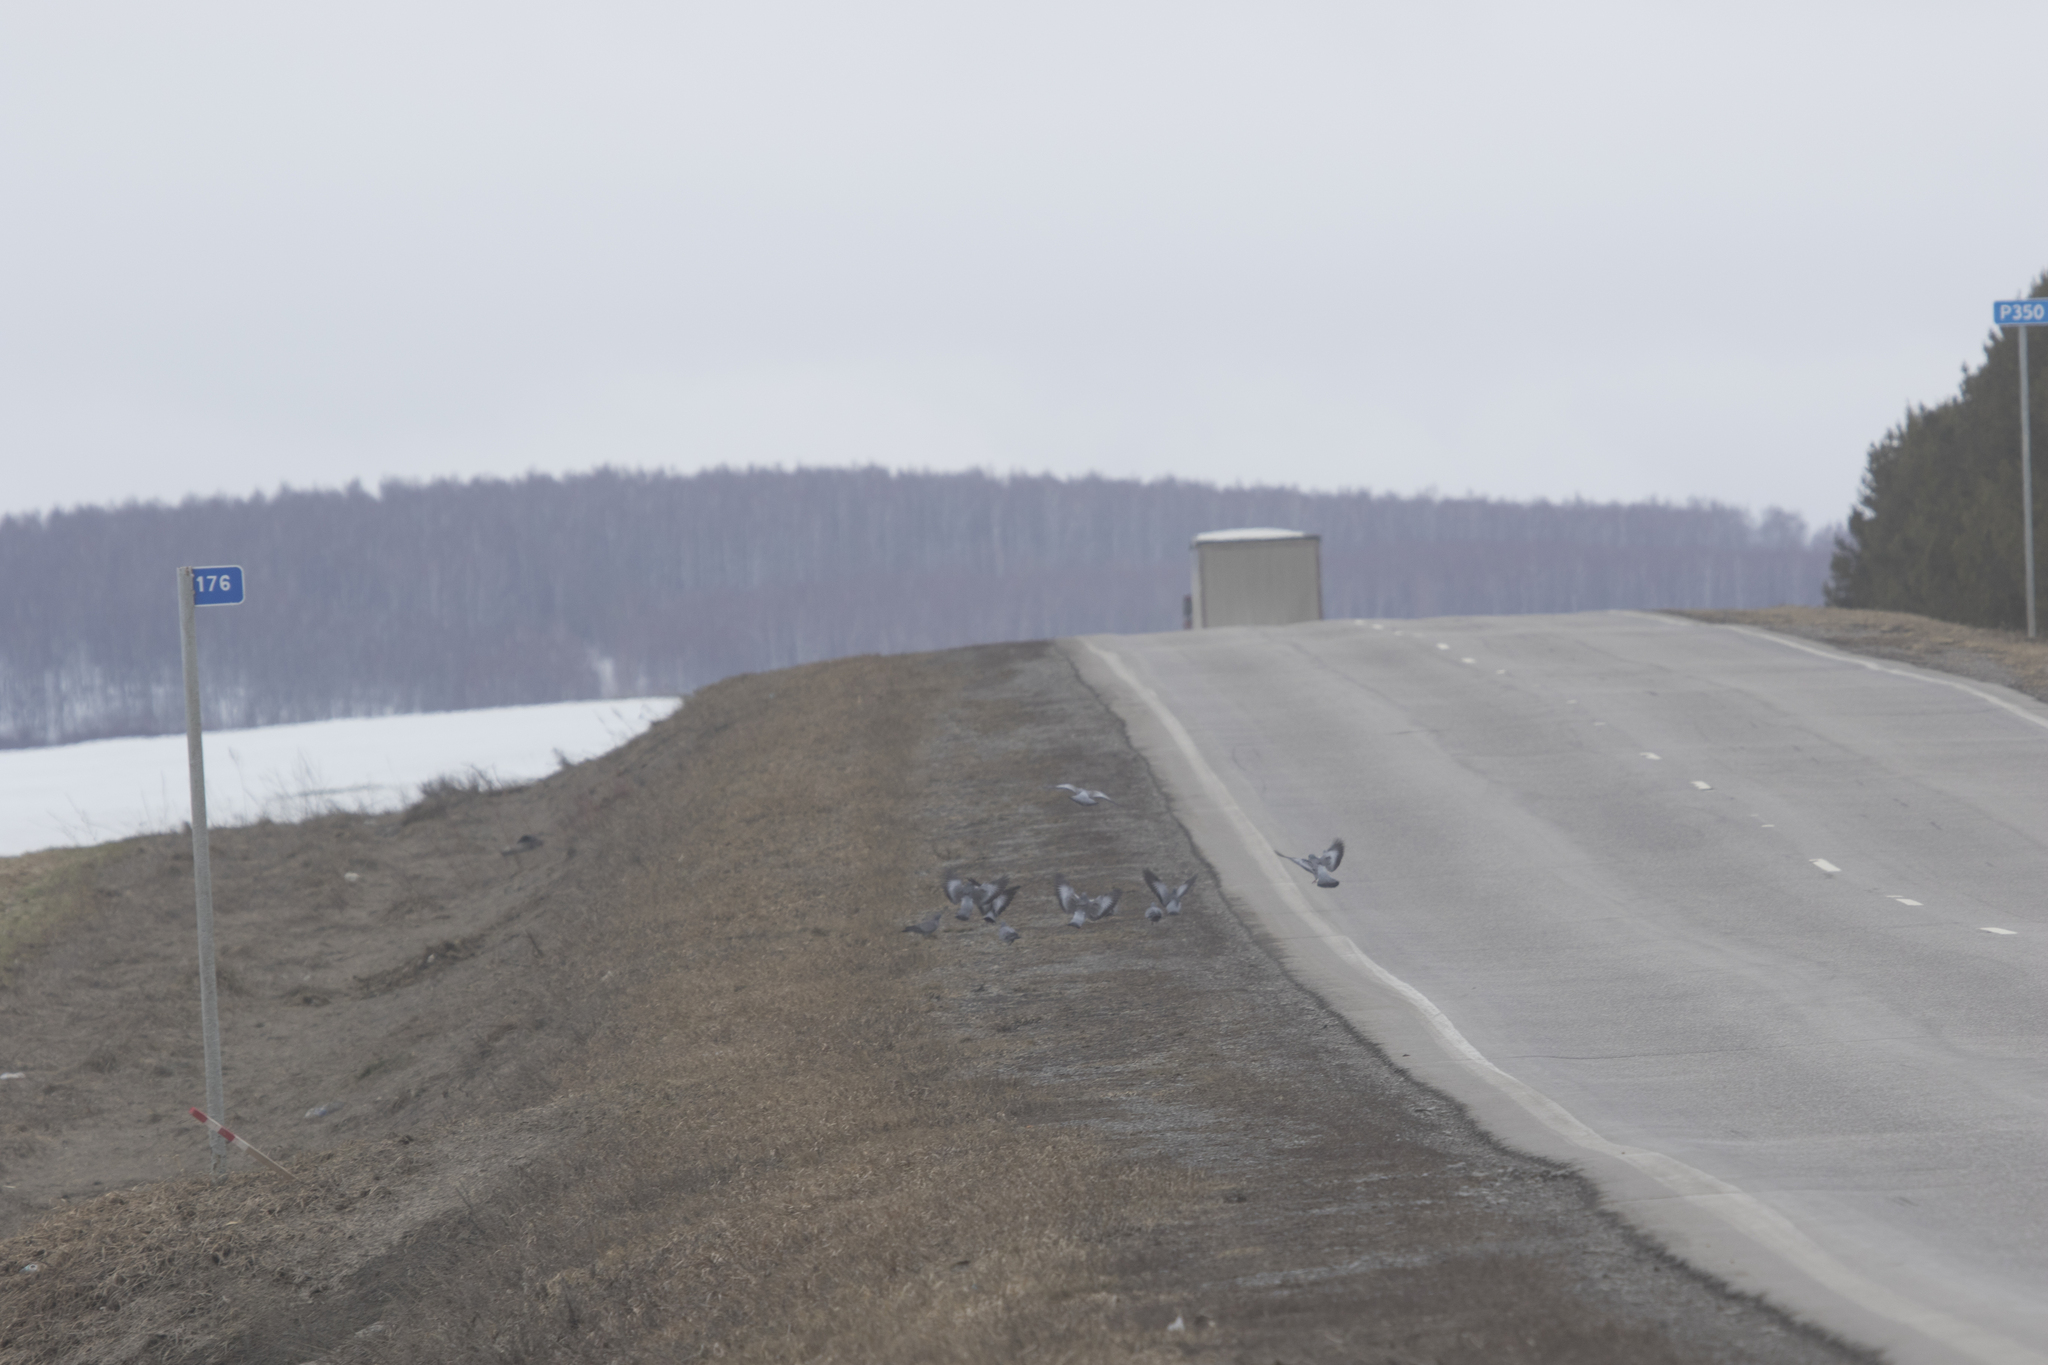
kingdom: Animalia
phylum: Chordata
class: Aves
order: Columbiformes
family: Columbidae
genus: Columba
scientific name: Columba oenas
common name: Stock dove
